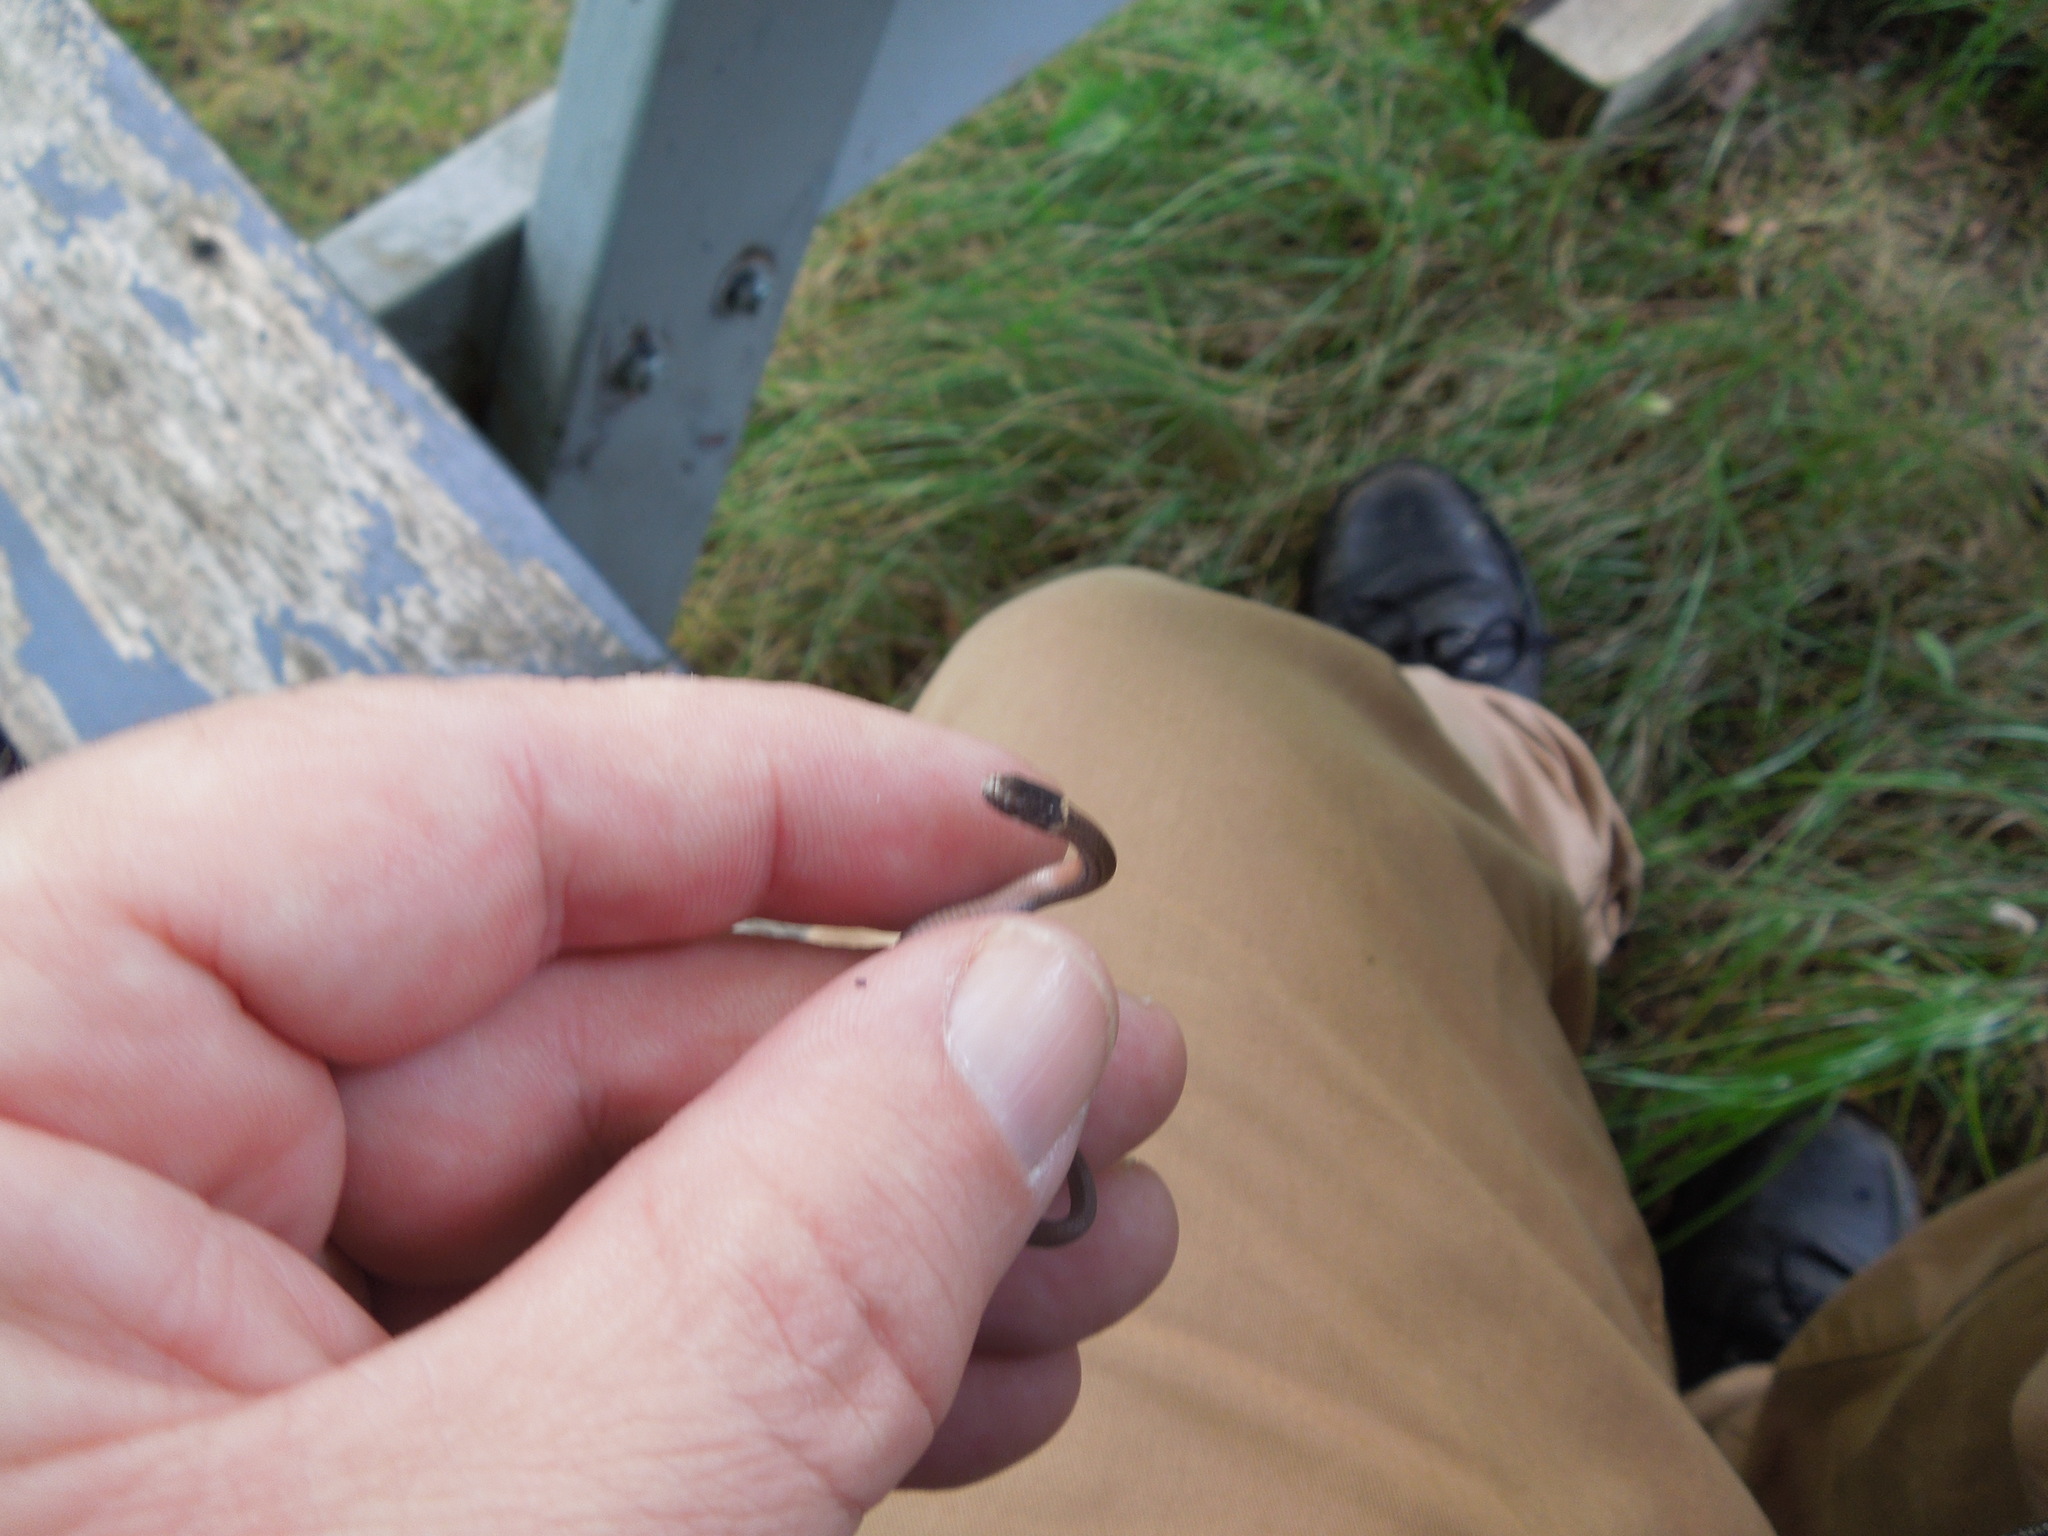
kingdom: Animalia
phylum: Chordata
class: Squamata
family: Colubridae
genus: Storeria
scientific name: Storeria occipitomaculata
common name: Redbelly snake
